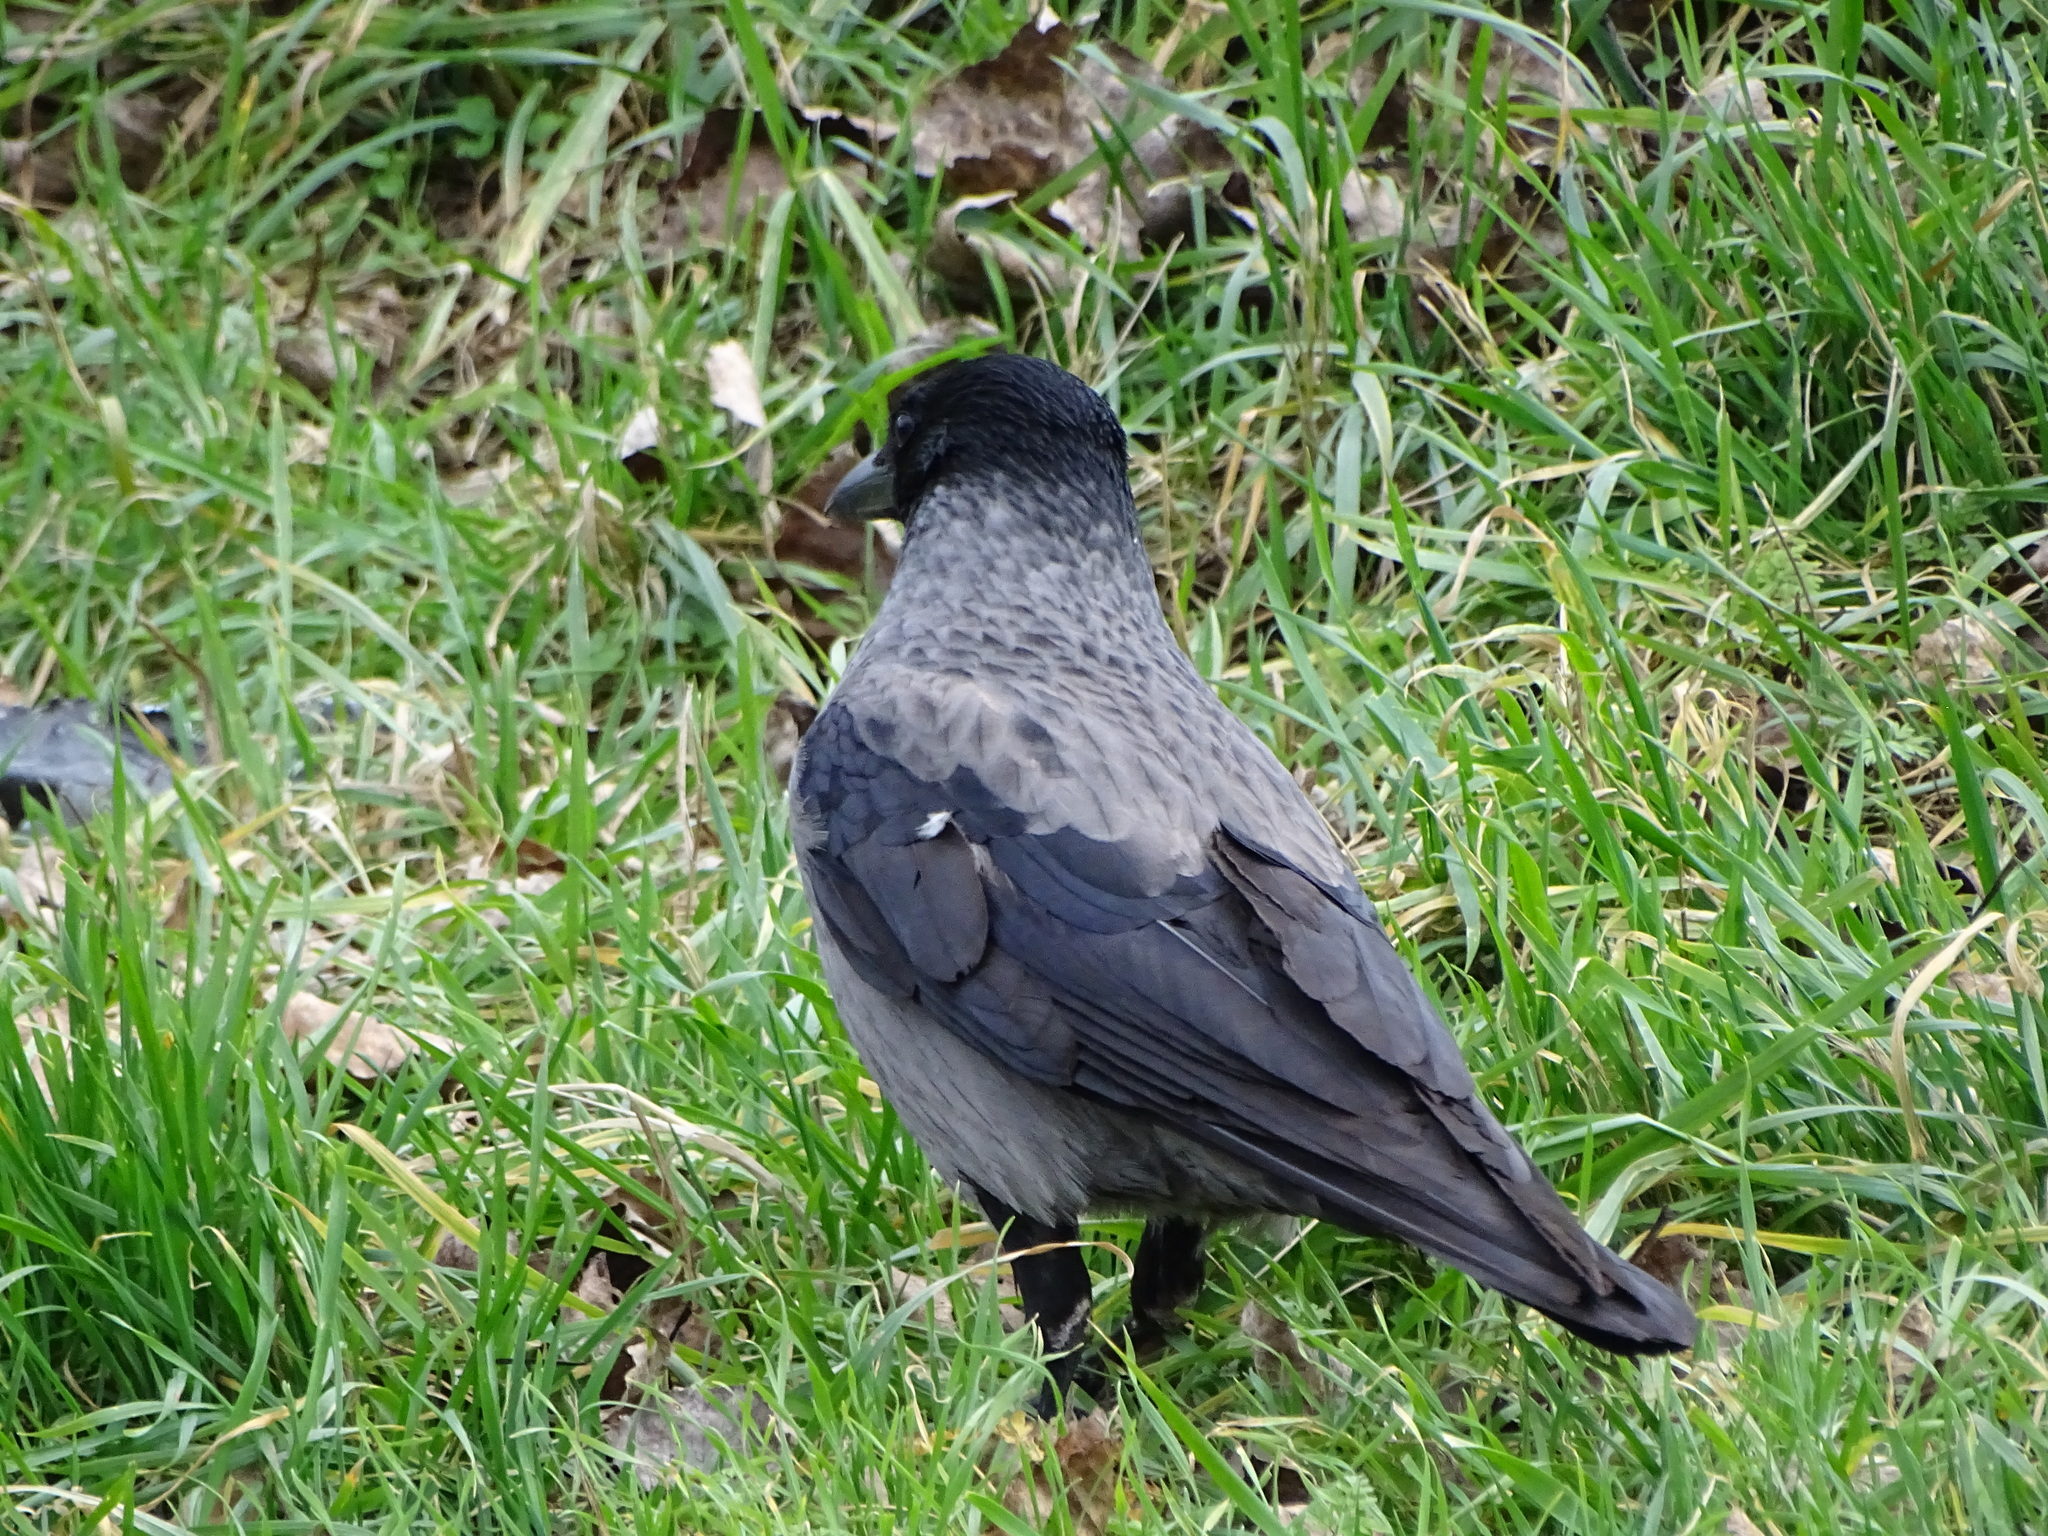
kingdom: Animalia
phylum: Chordata
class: Aves
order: Passeriformes
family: Corvidae
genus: Corvus
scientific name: Corvus
